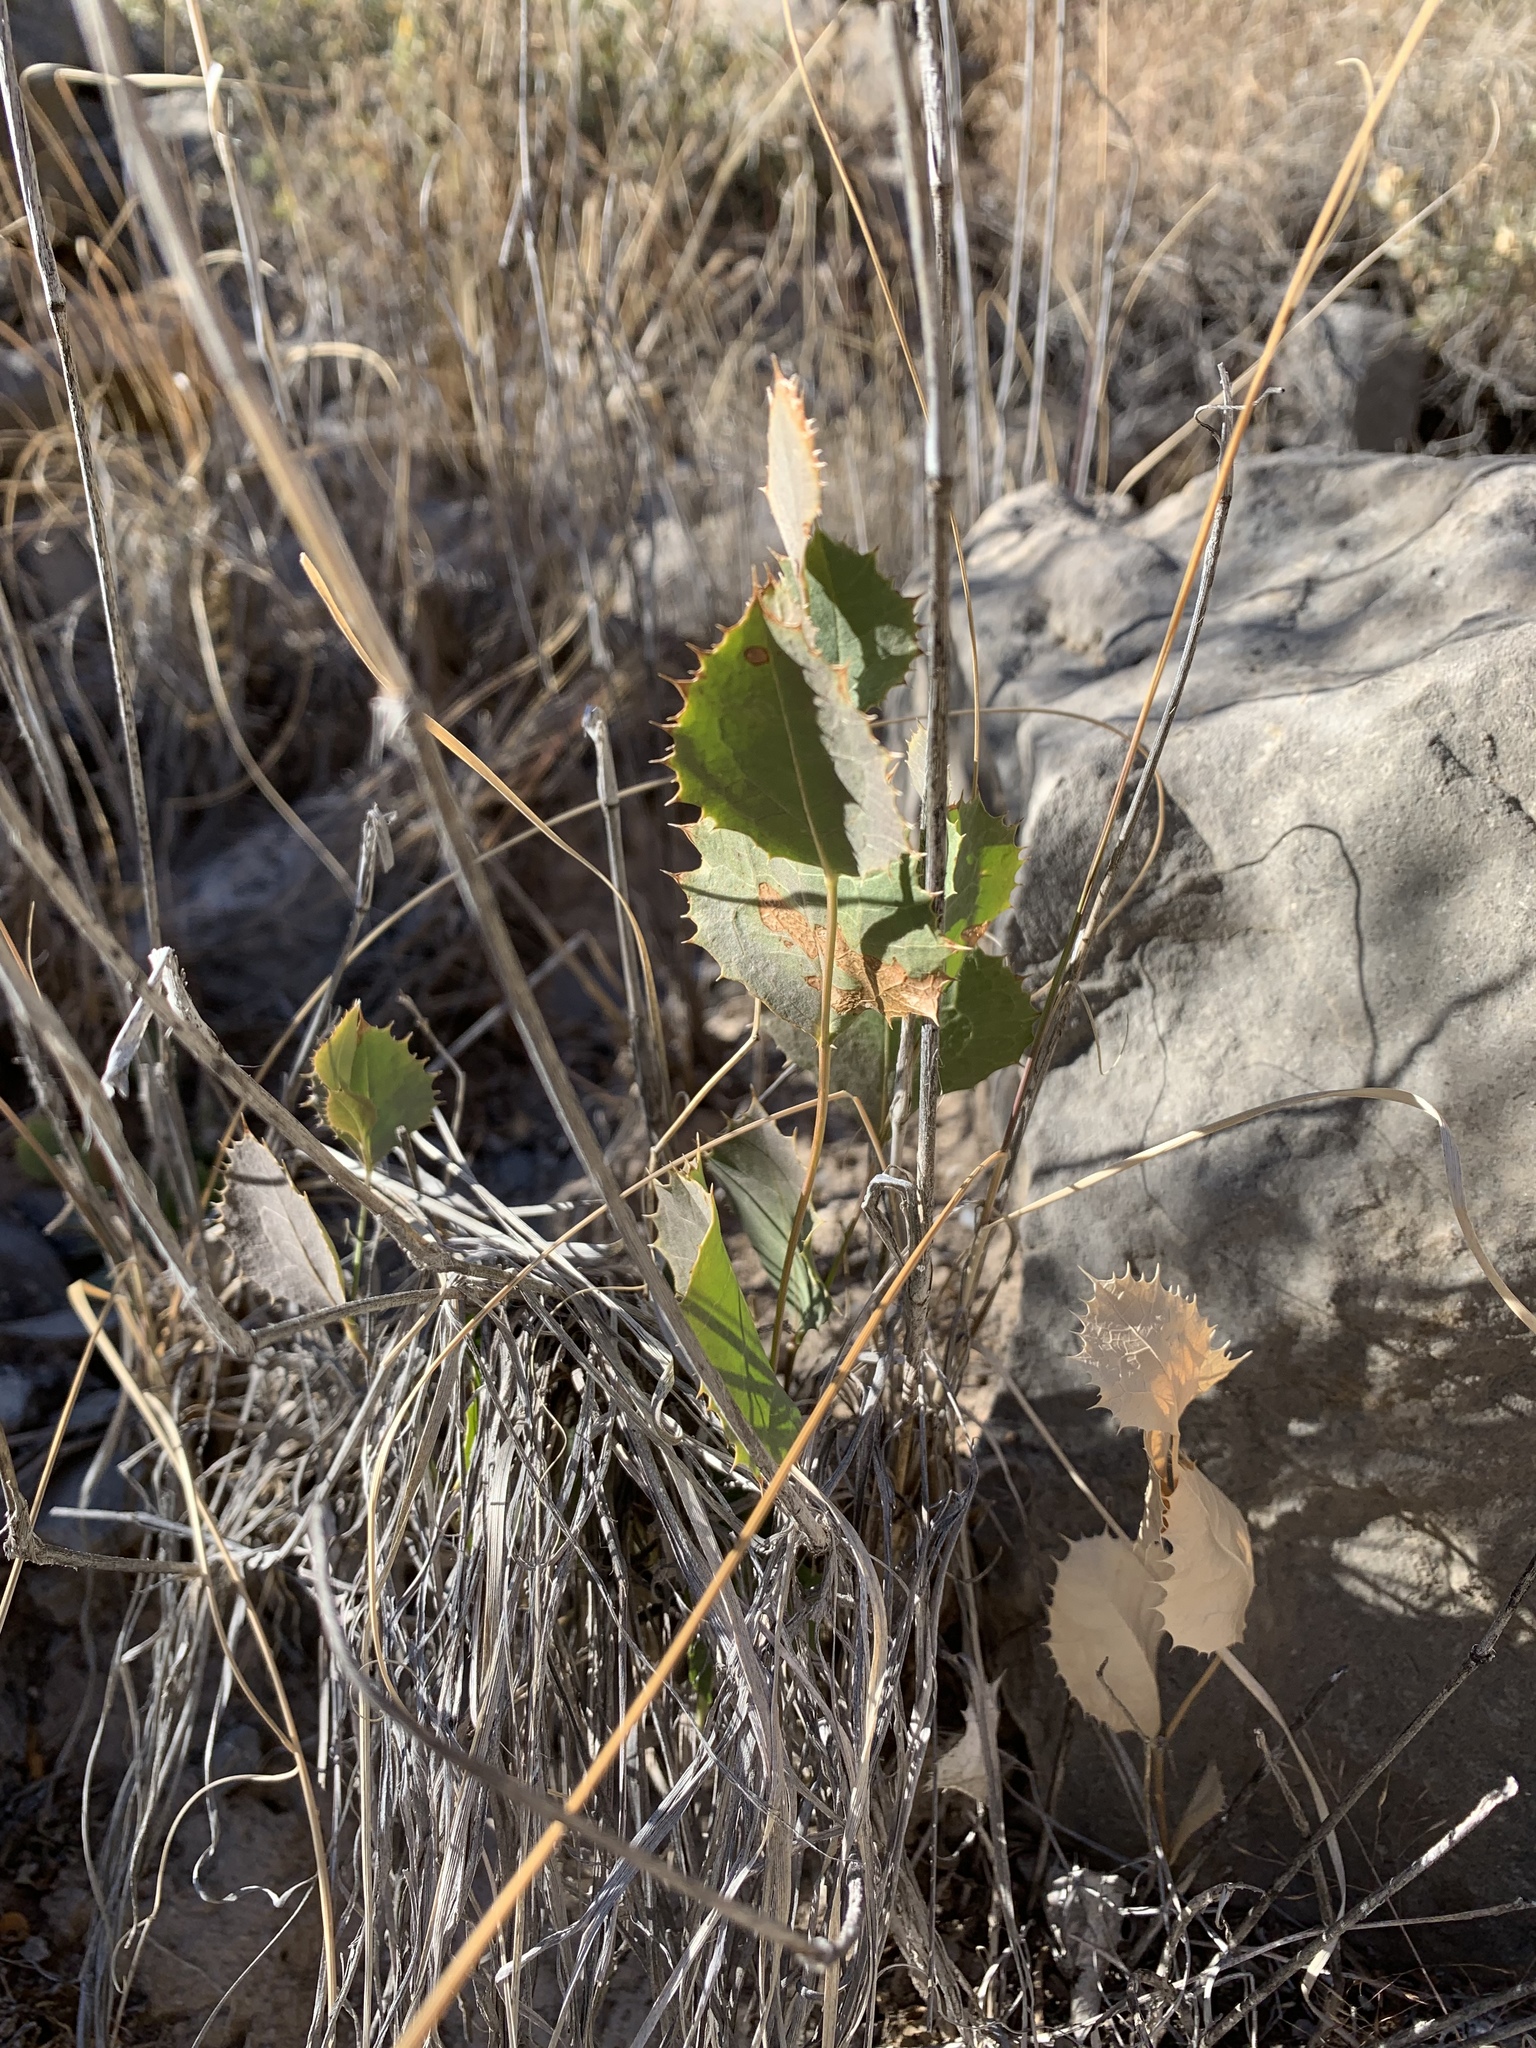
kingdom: Plantae
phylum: Tracheophyta
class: Magnoliopsida
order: Asterales
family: Asteraceae
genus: Acourtia
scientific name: Acourtia nana
